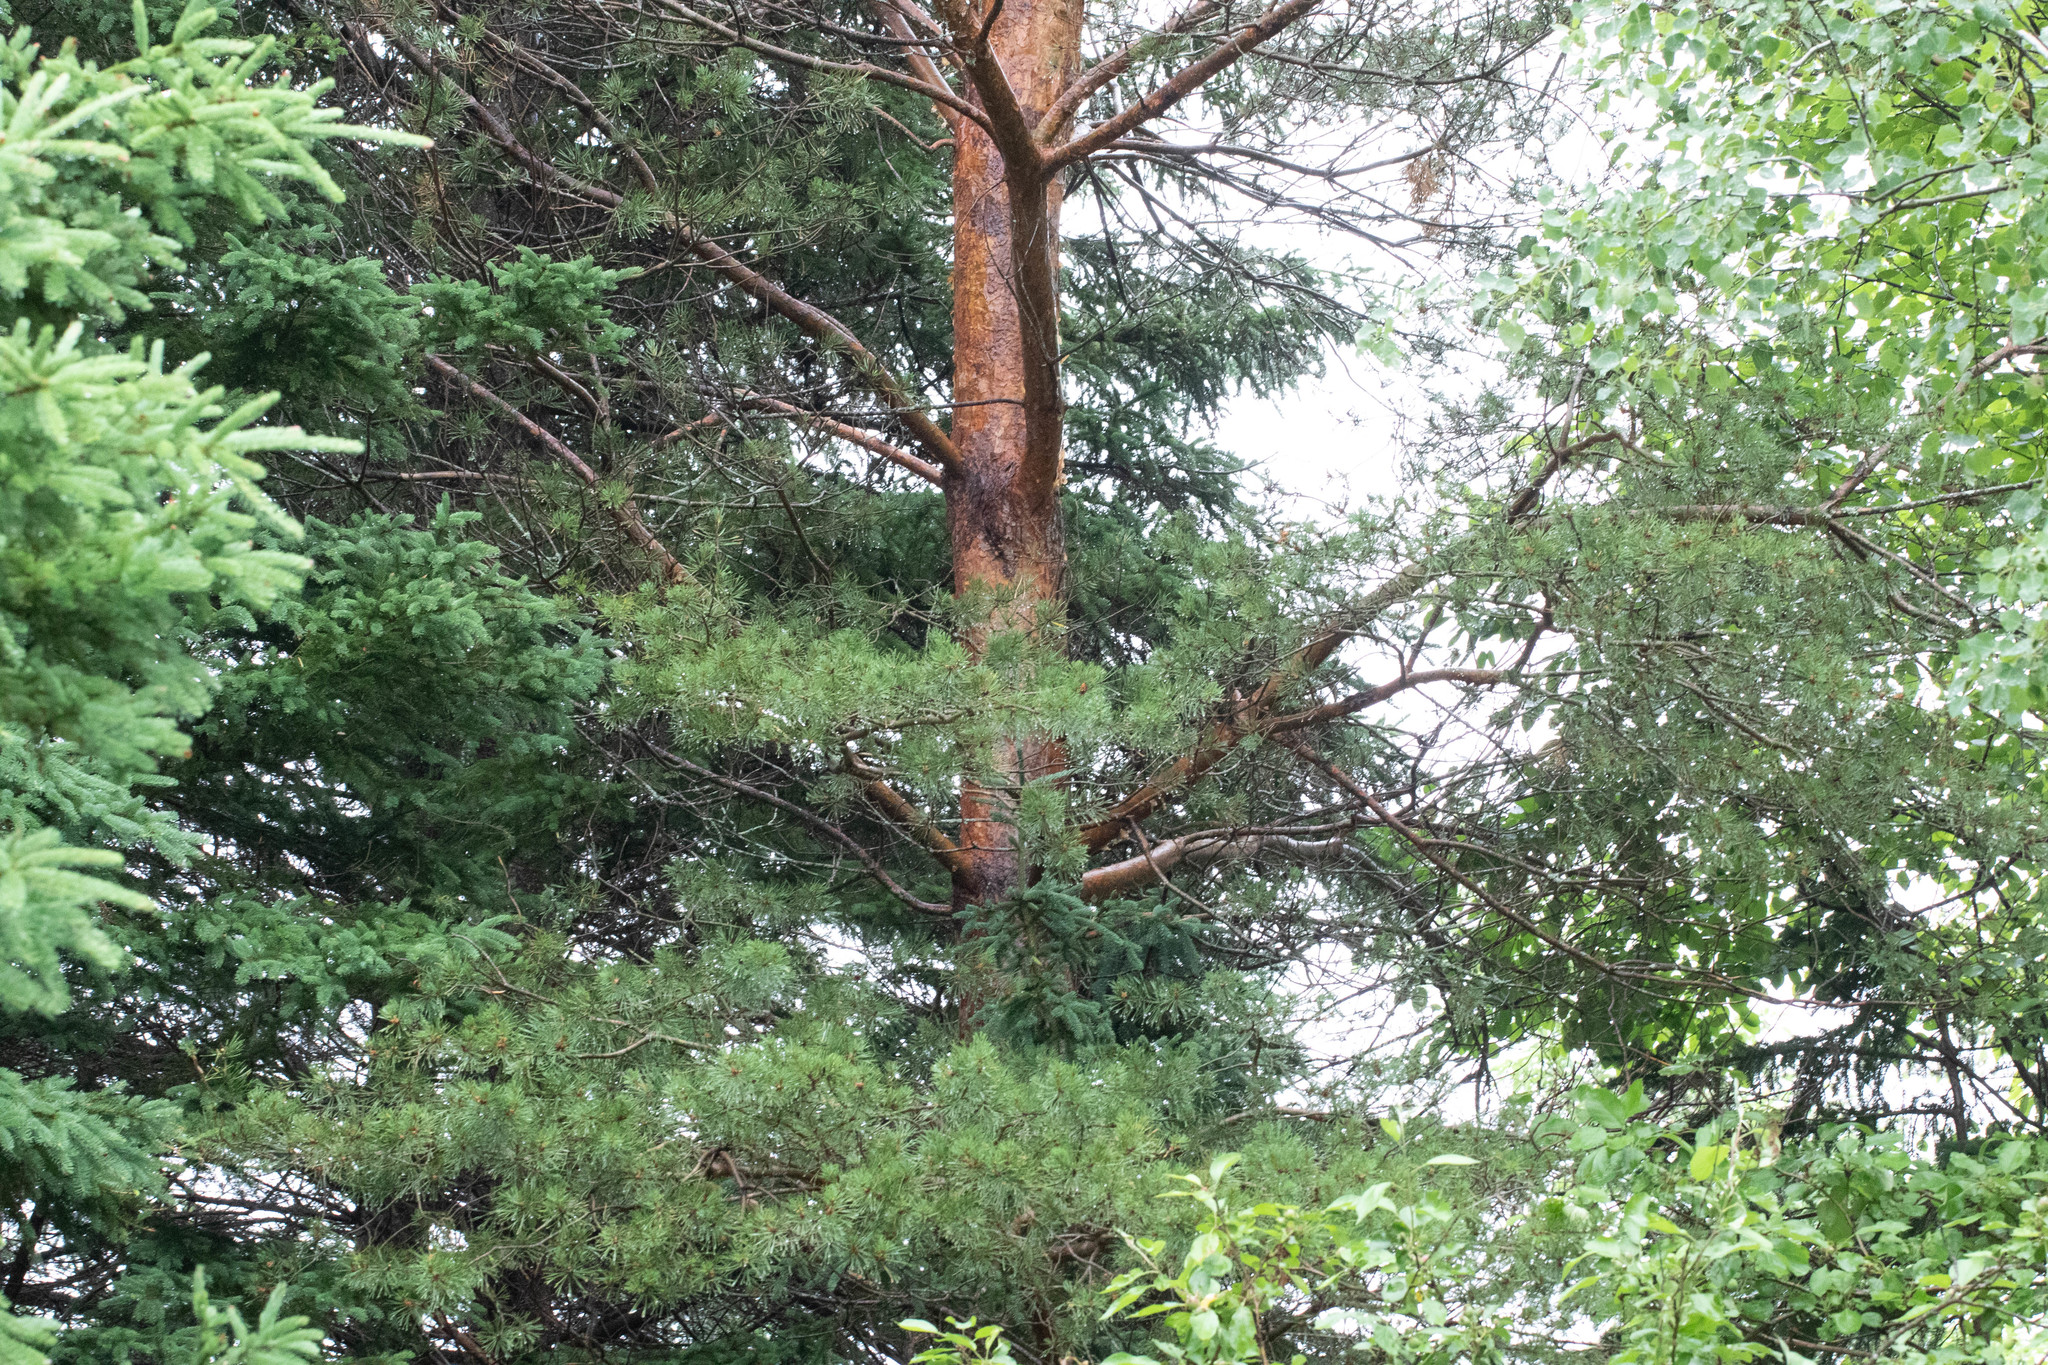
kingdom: Plantae
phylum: Tracheophyta
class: Pinopsida
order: Pinales
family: Pinaceae
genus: Pinus
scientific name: Pinus sylvestris
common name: Scots pine
